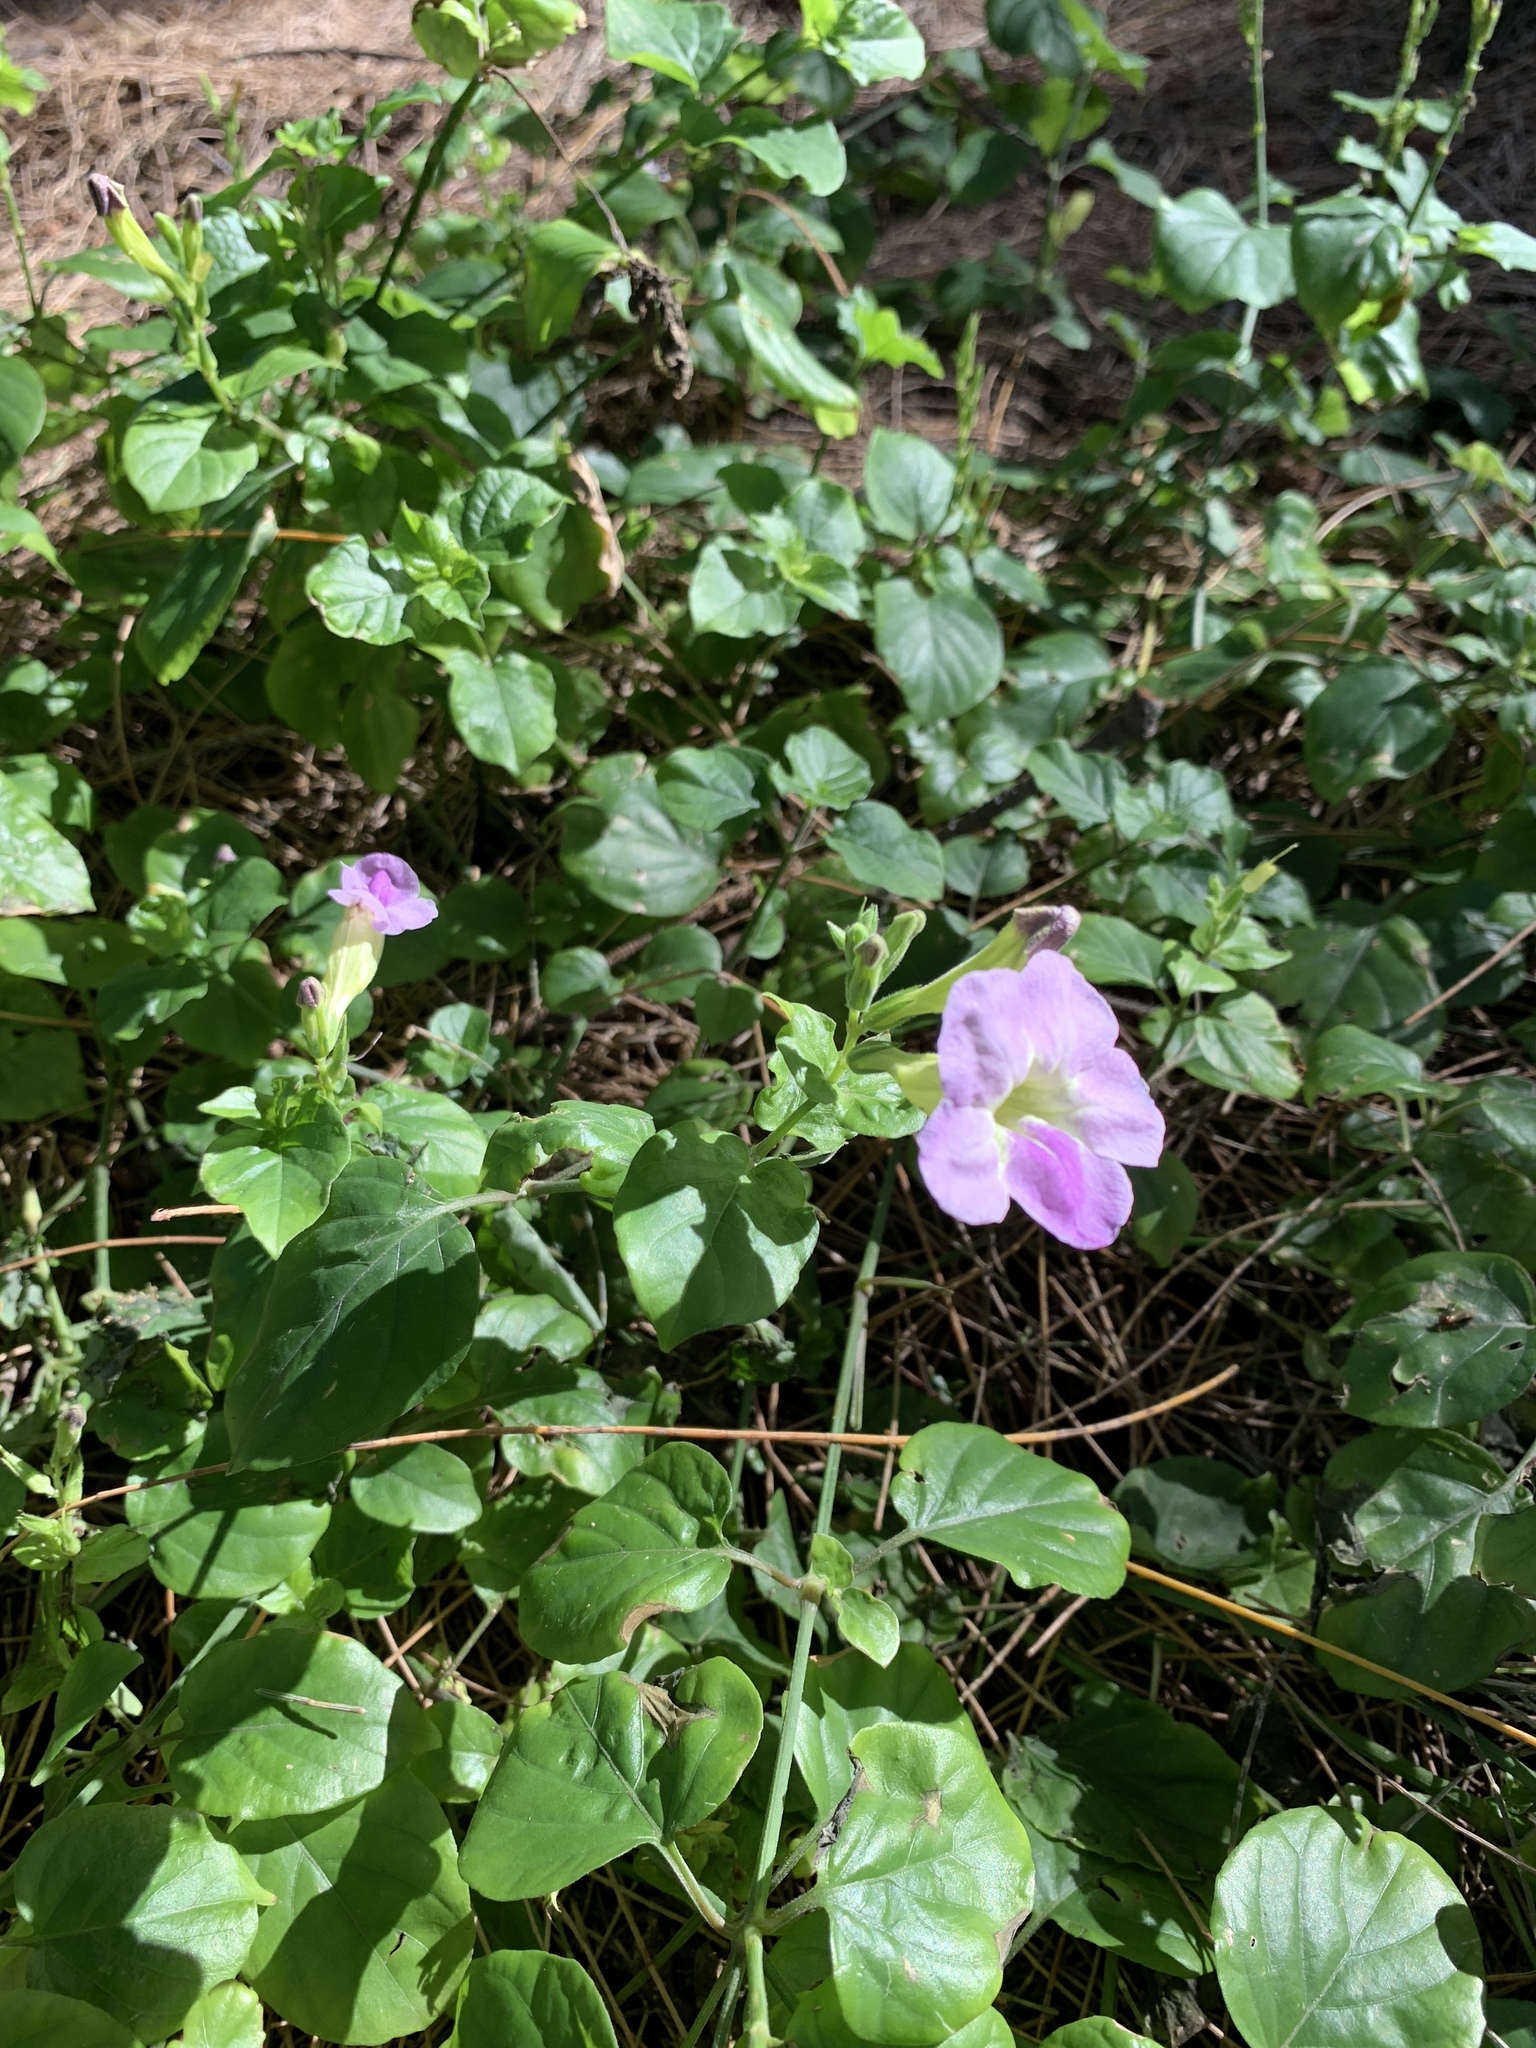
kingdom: Plantae
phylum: Tracheophyta
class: Magnoliopsida
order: Lamiales
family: Acanthaceae
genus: Asystasia
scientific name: Asystasia gangetica
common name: Chinese violet
